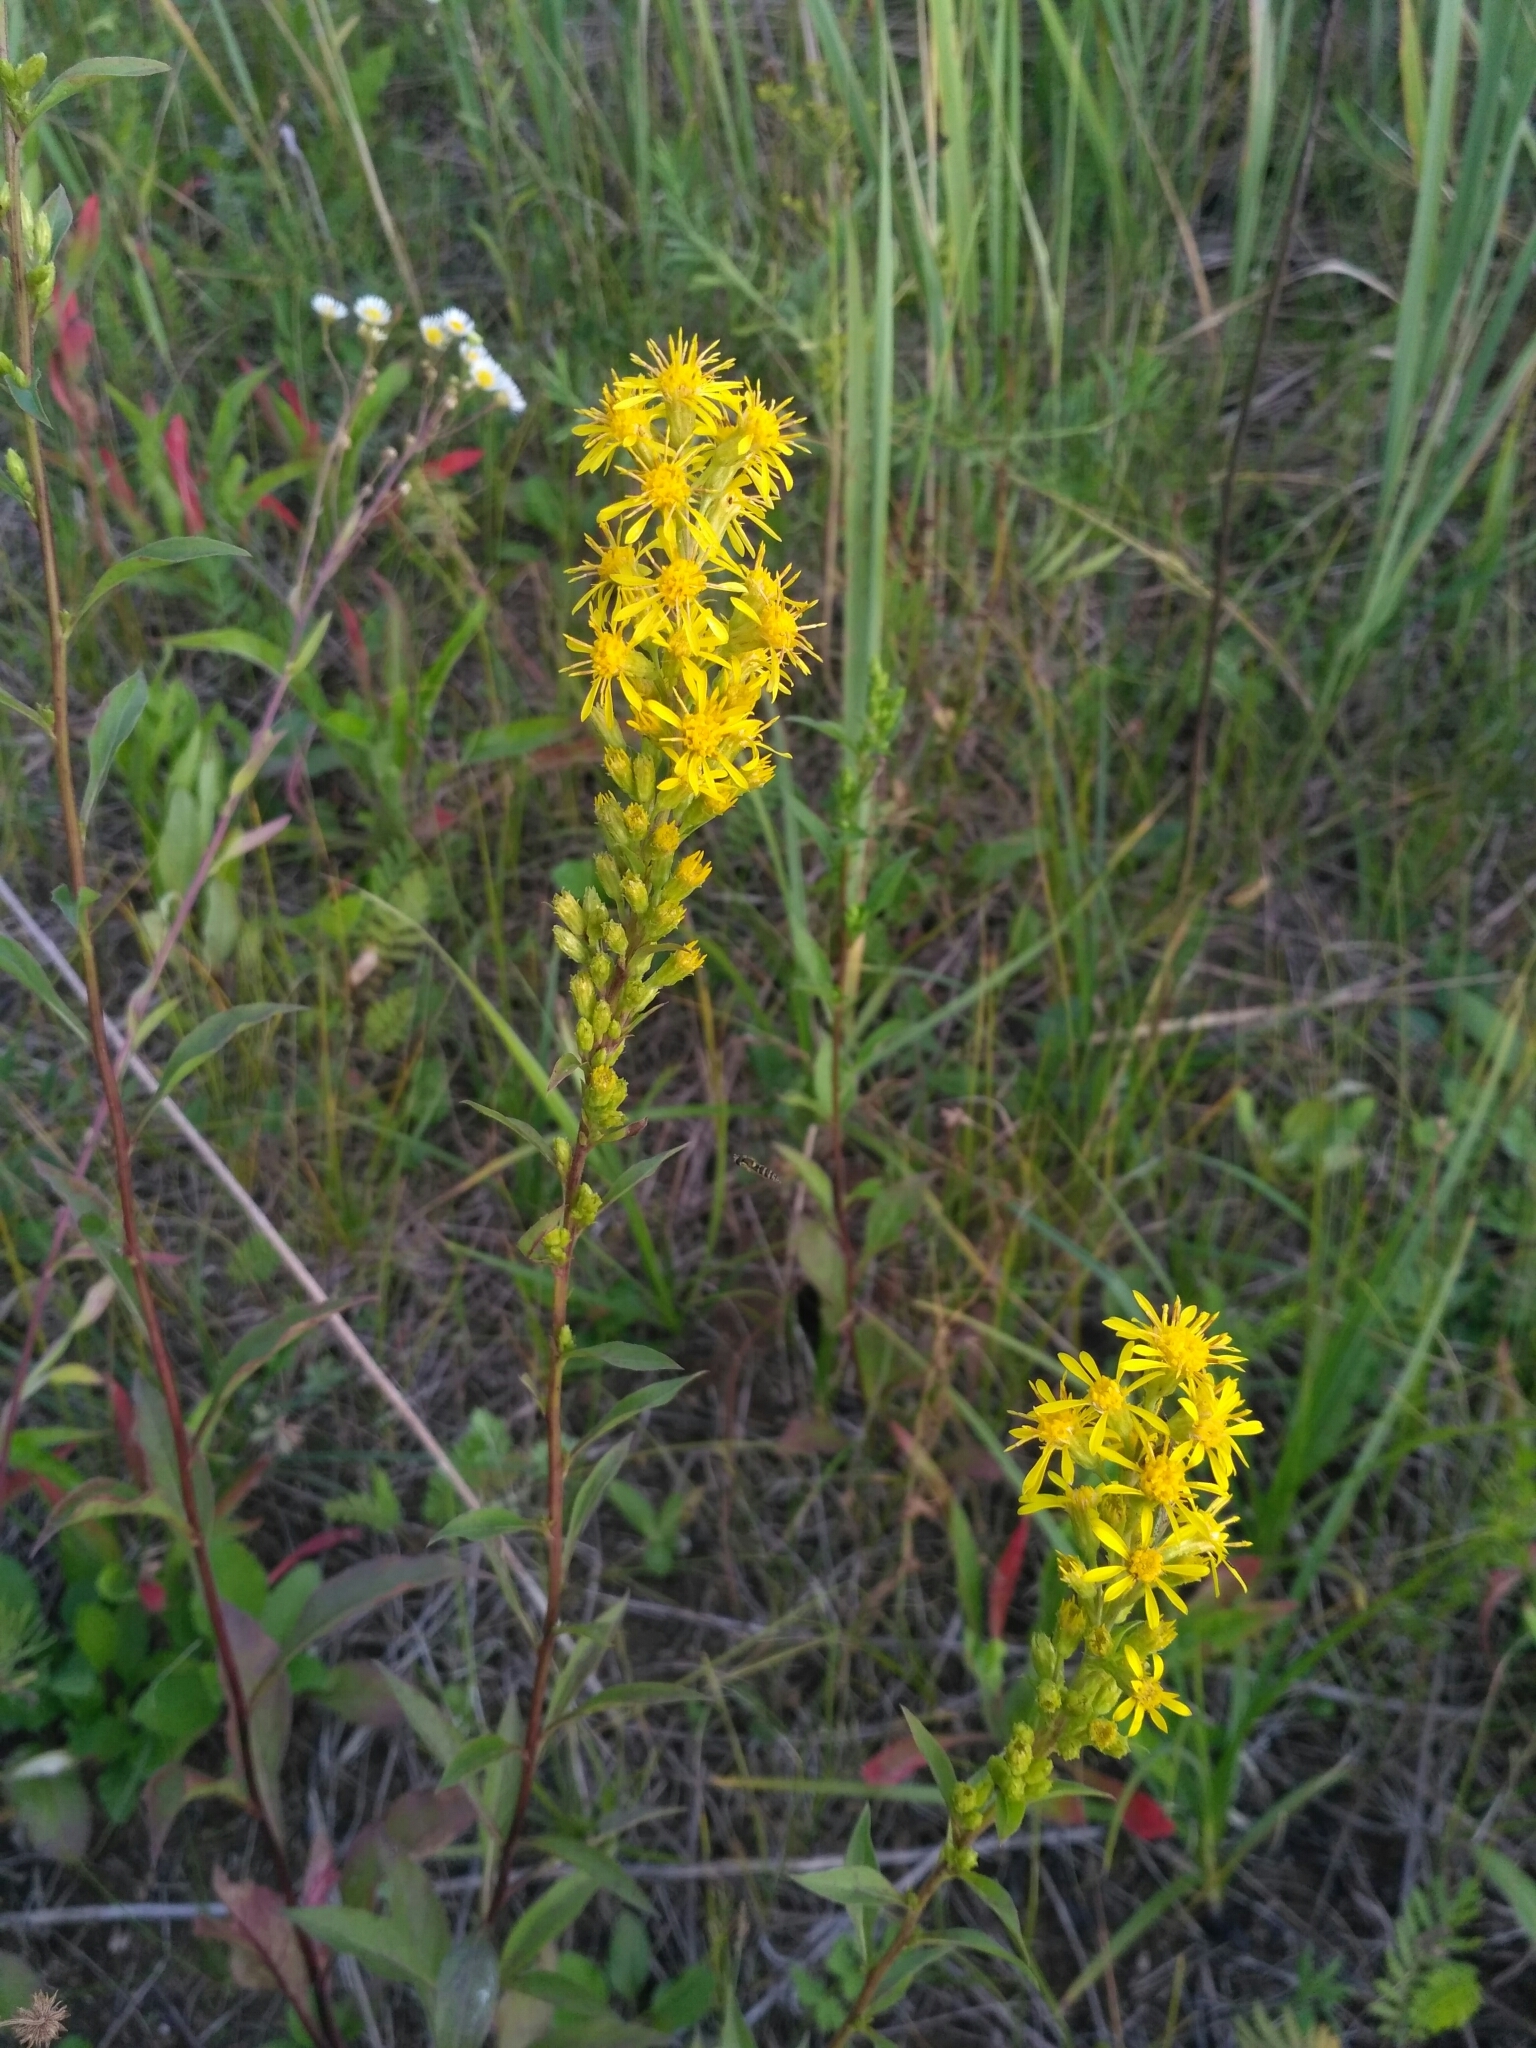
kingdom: Plantae
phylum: Tracheophyta
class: Magnoliopsida
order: Asterales
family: Asteraceae
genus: Solidago
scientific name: Solidago virgaurea
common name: Goldenrod
